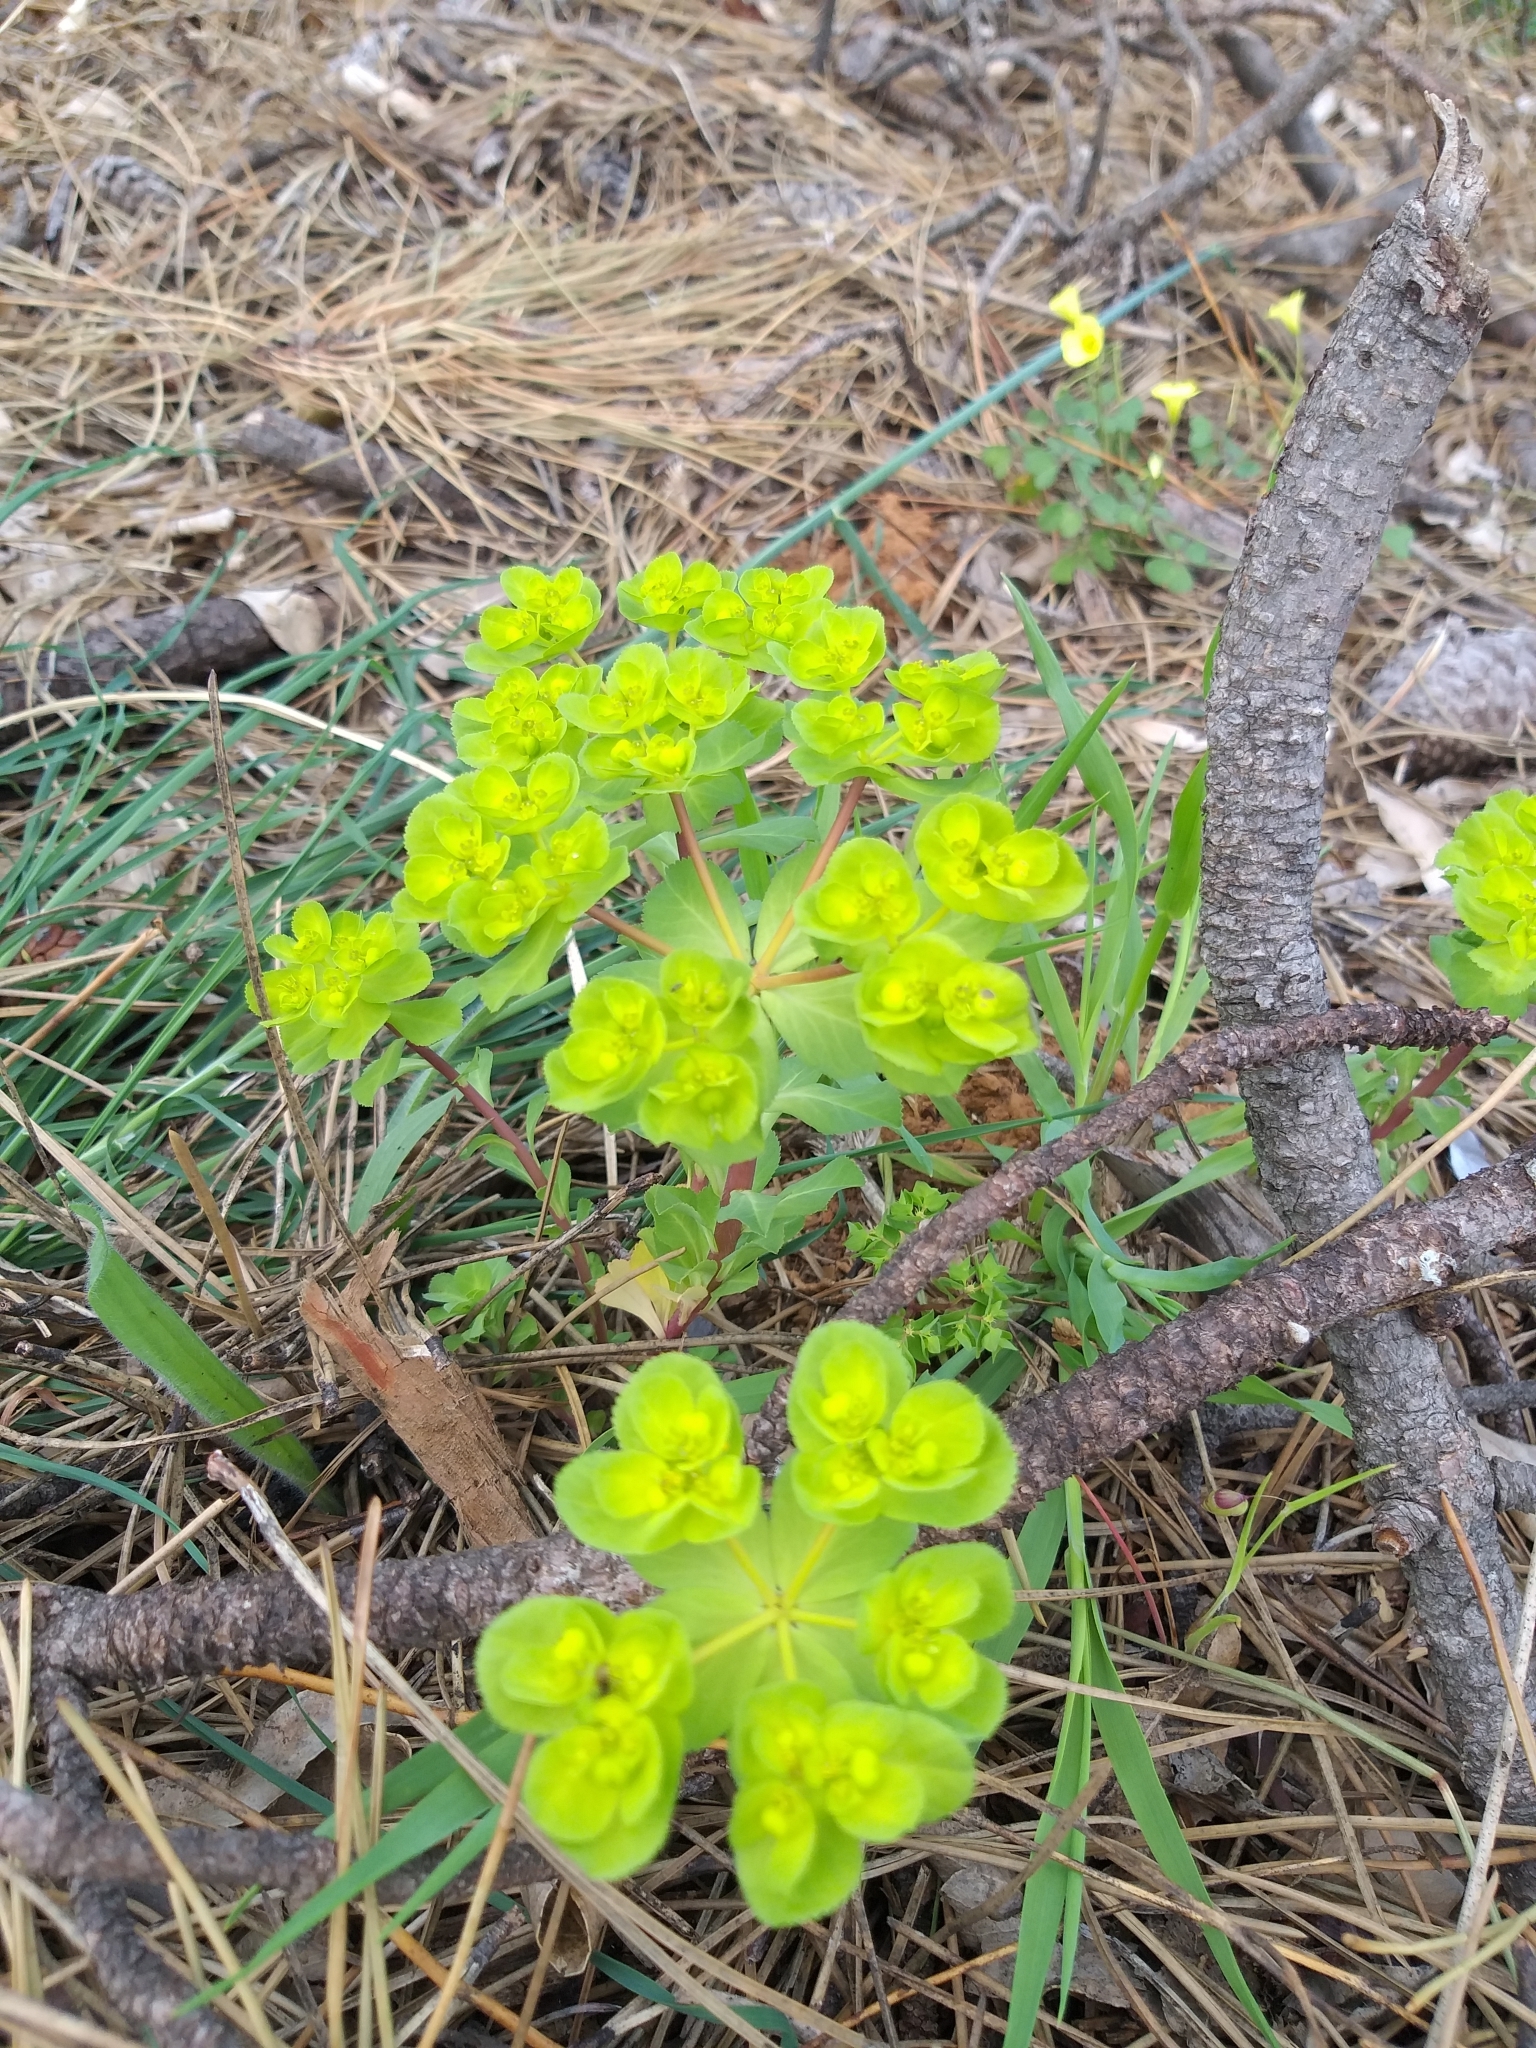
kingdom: Plantae
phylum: Tracheophyta
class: Magnoliopsida
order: Malpighiales
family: Euphorbiaceae
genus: Euphorbia
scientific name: Euphorbia helioscopia
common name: Sun spurge
